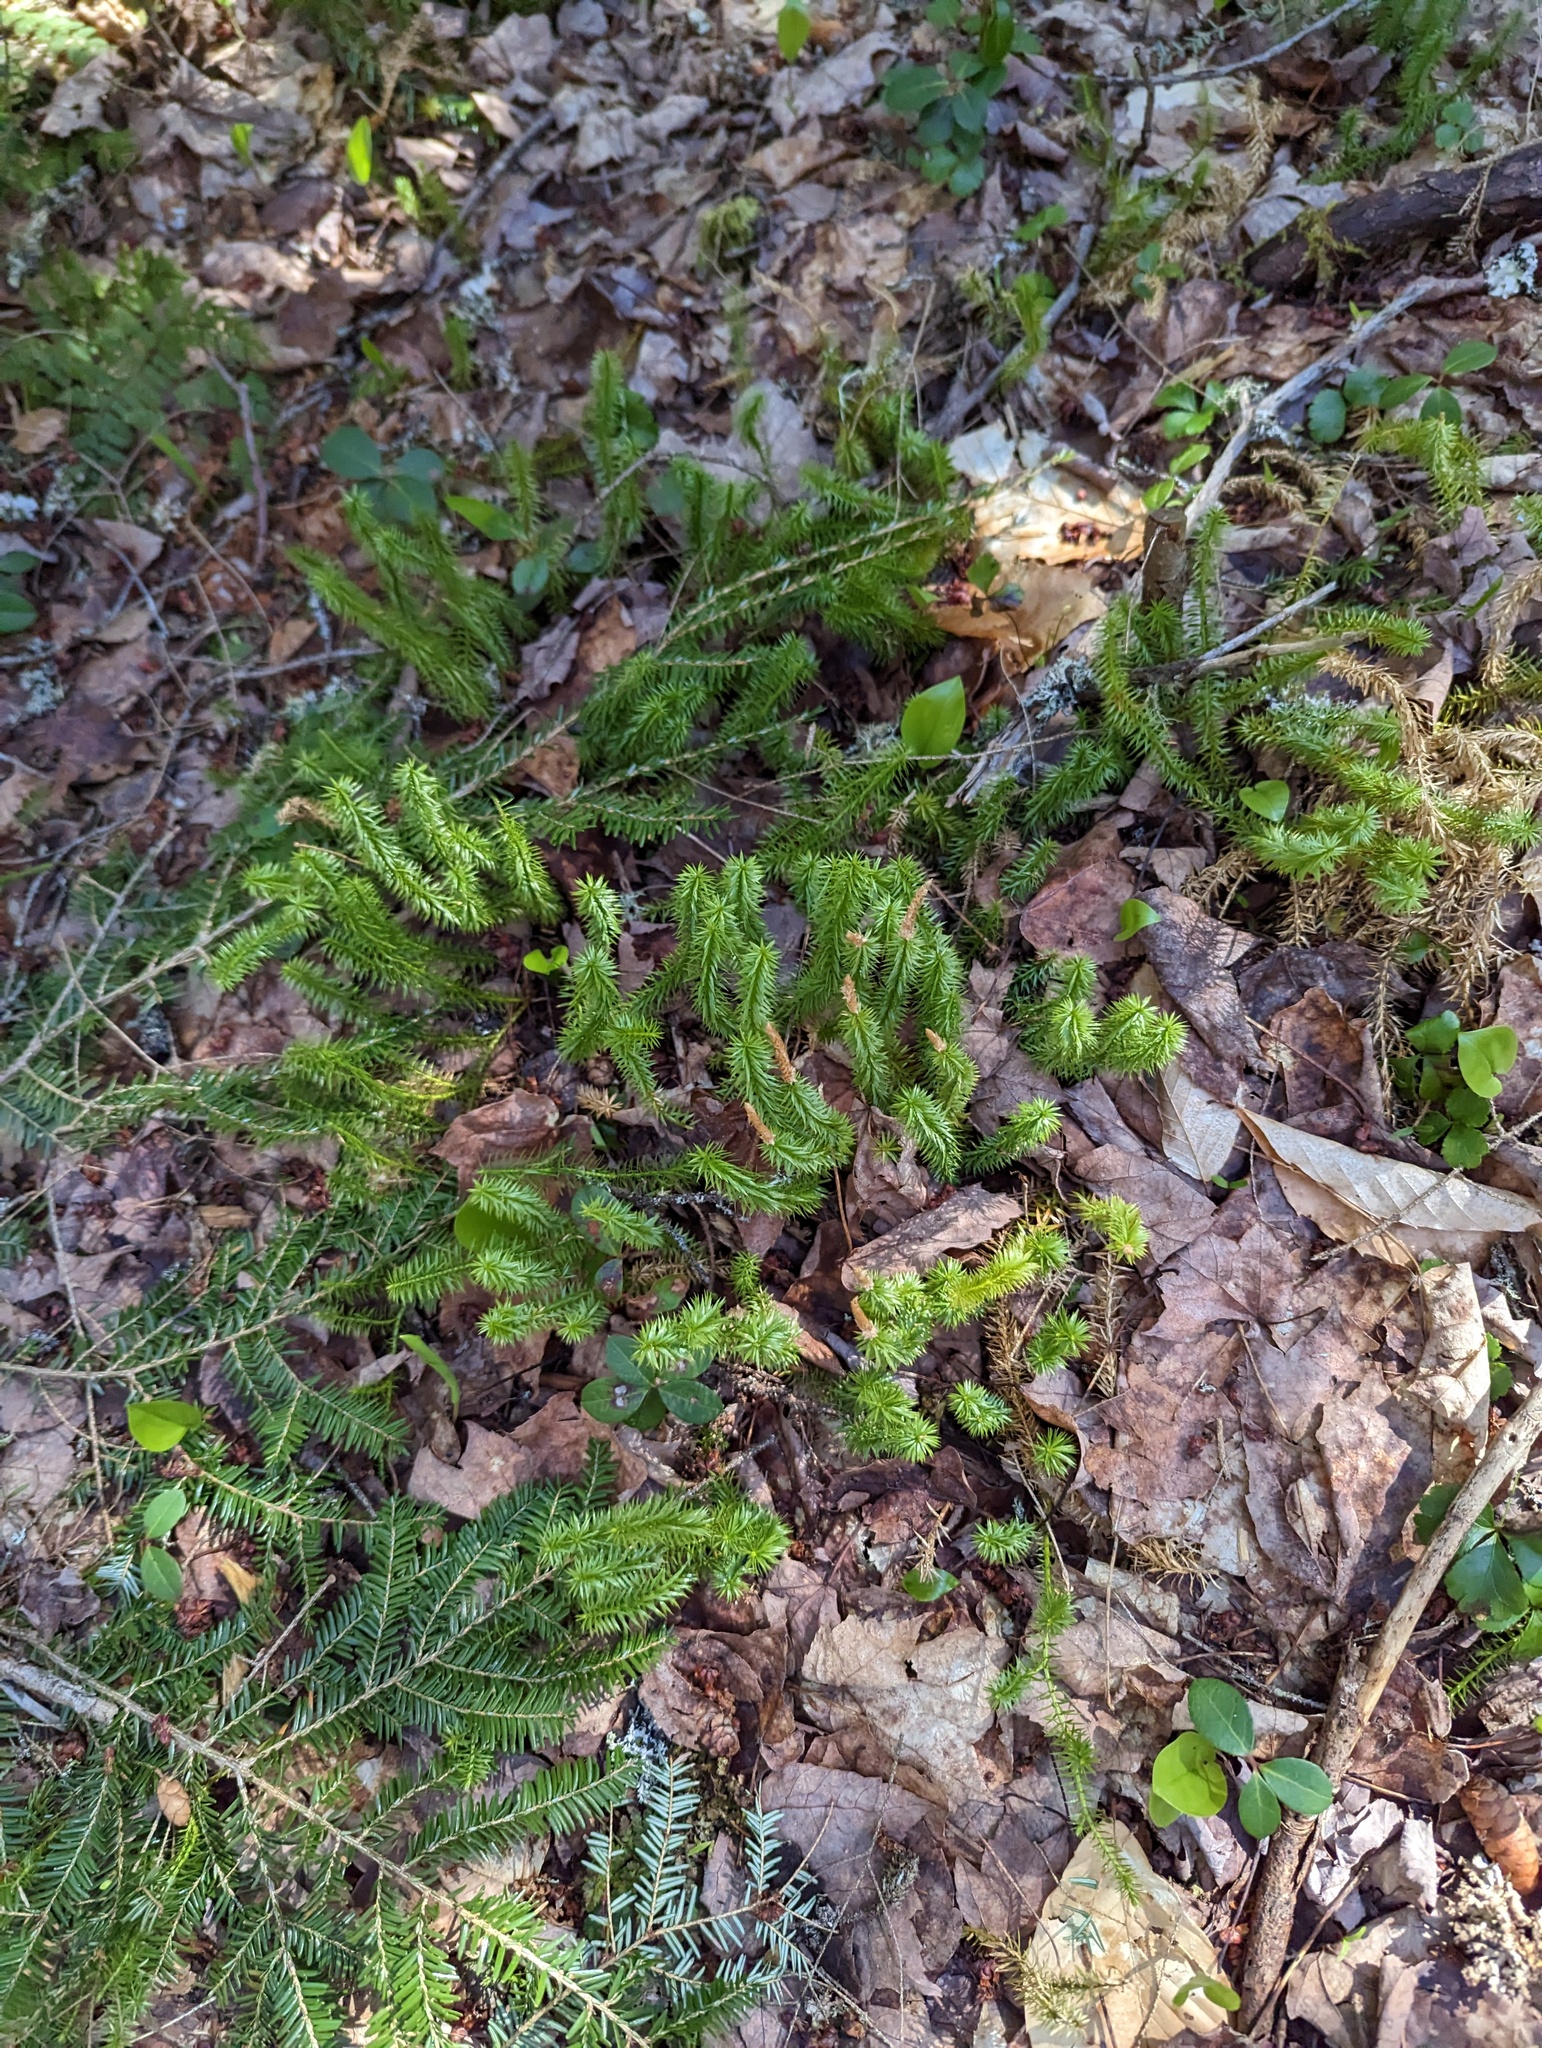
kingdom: Plantae
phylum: Tracheophyta
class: Lycopodiopsida
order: Lycopodiales
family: Lycopodiaceae
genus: Spinulum
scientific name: Spinulum annotinum
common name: Interrupted club-moss
